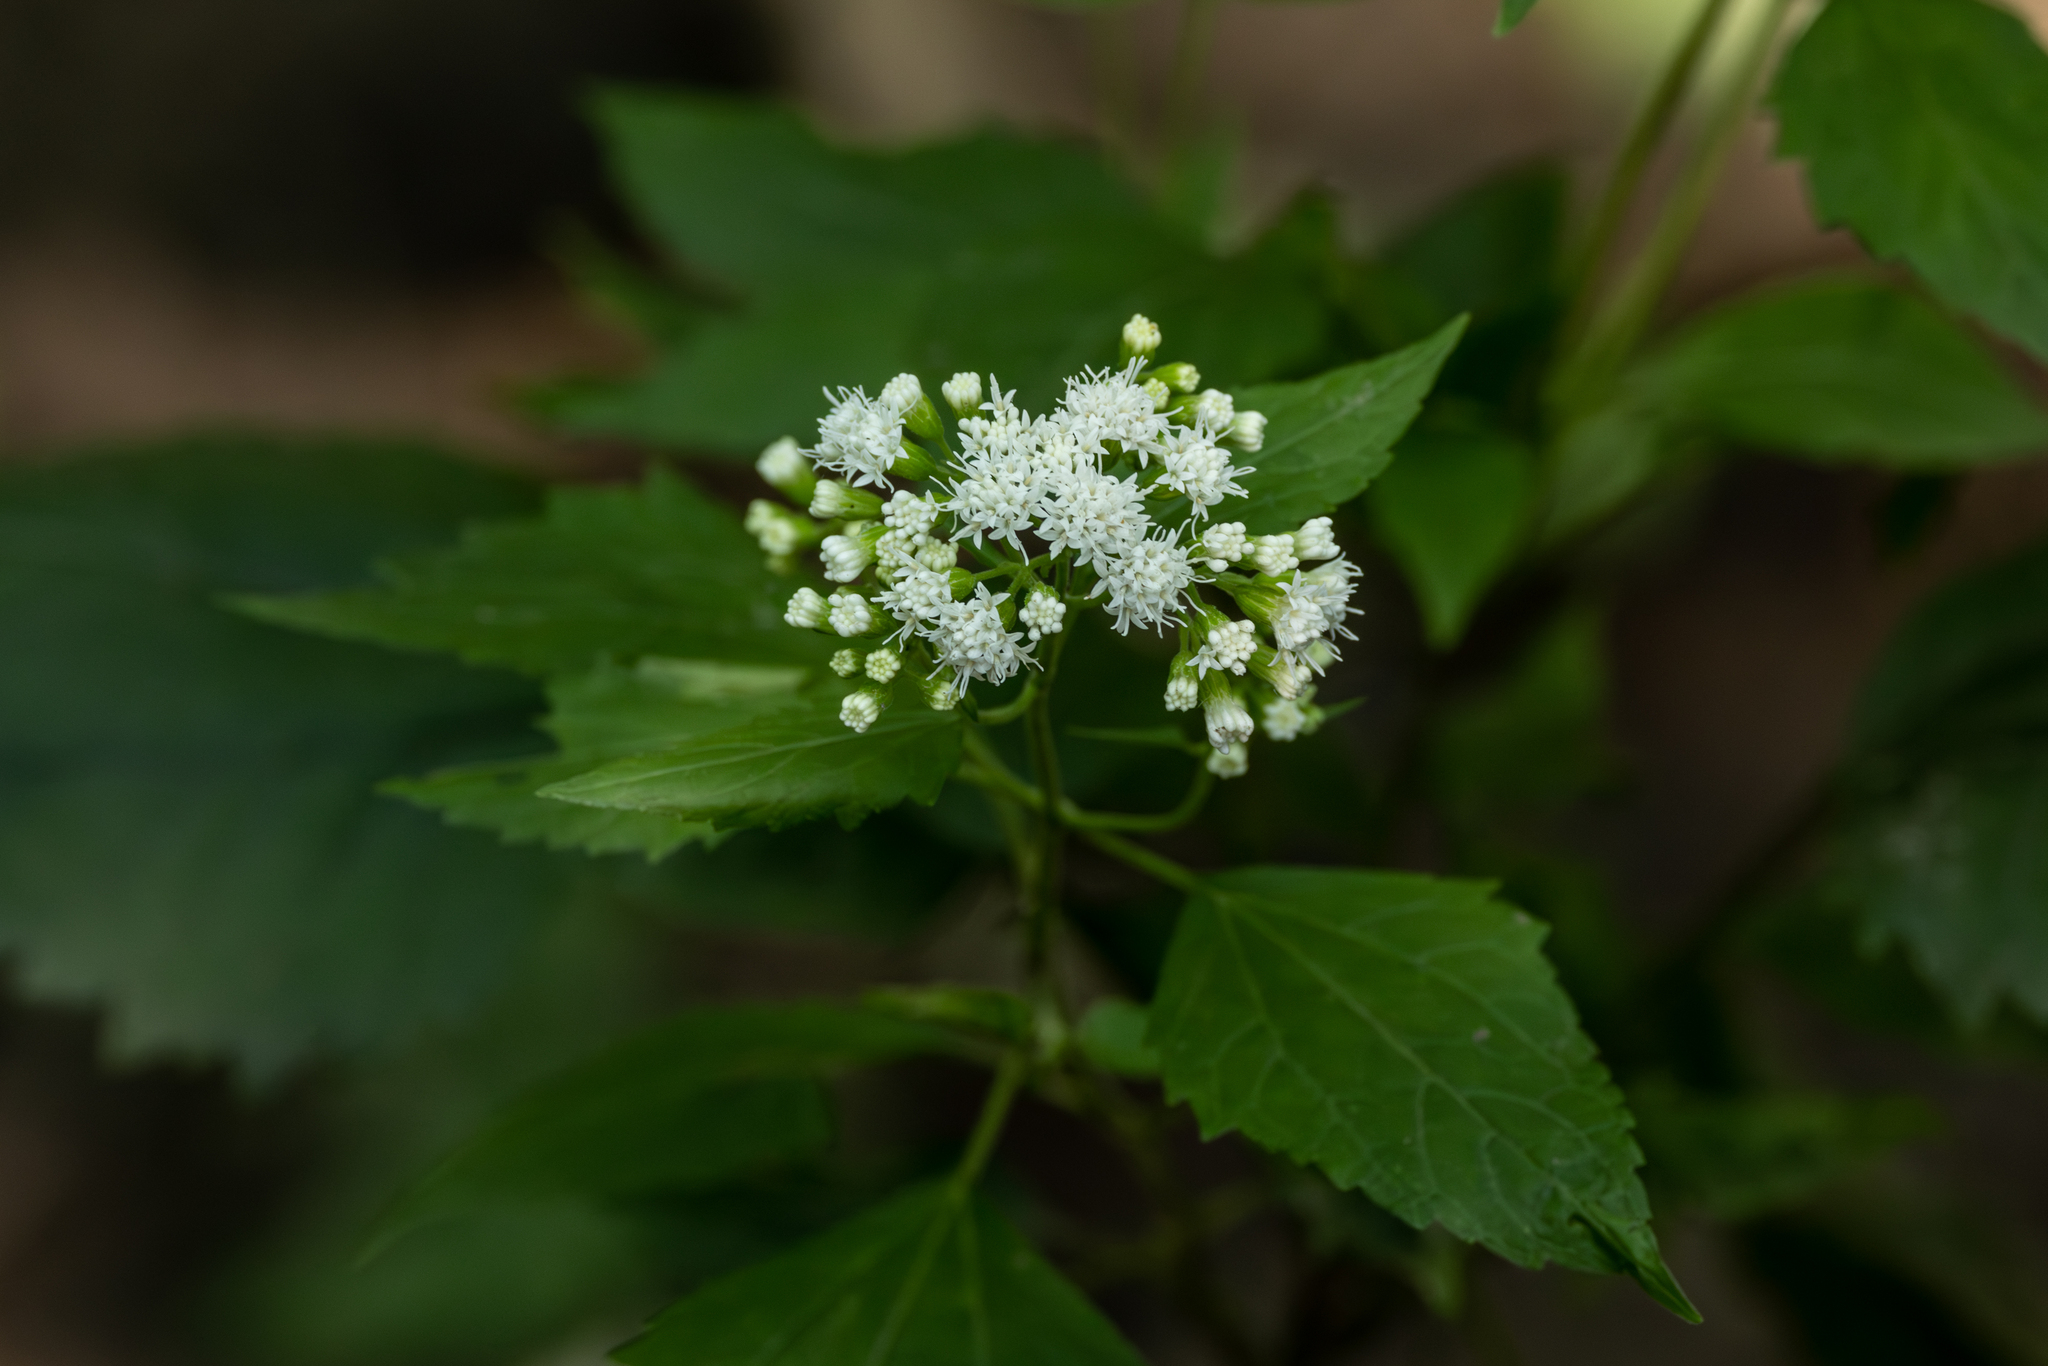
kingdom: Plantae
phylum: Tracheophyta
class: Magnoliopsida
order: Asterales
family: Asteraceae
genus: Ageratina
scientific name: Ageratina altissima
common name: White snakeroot
